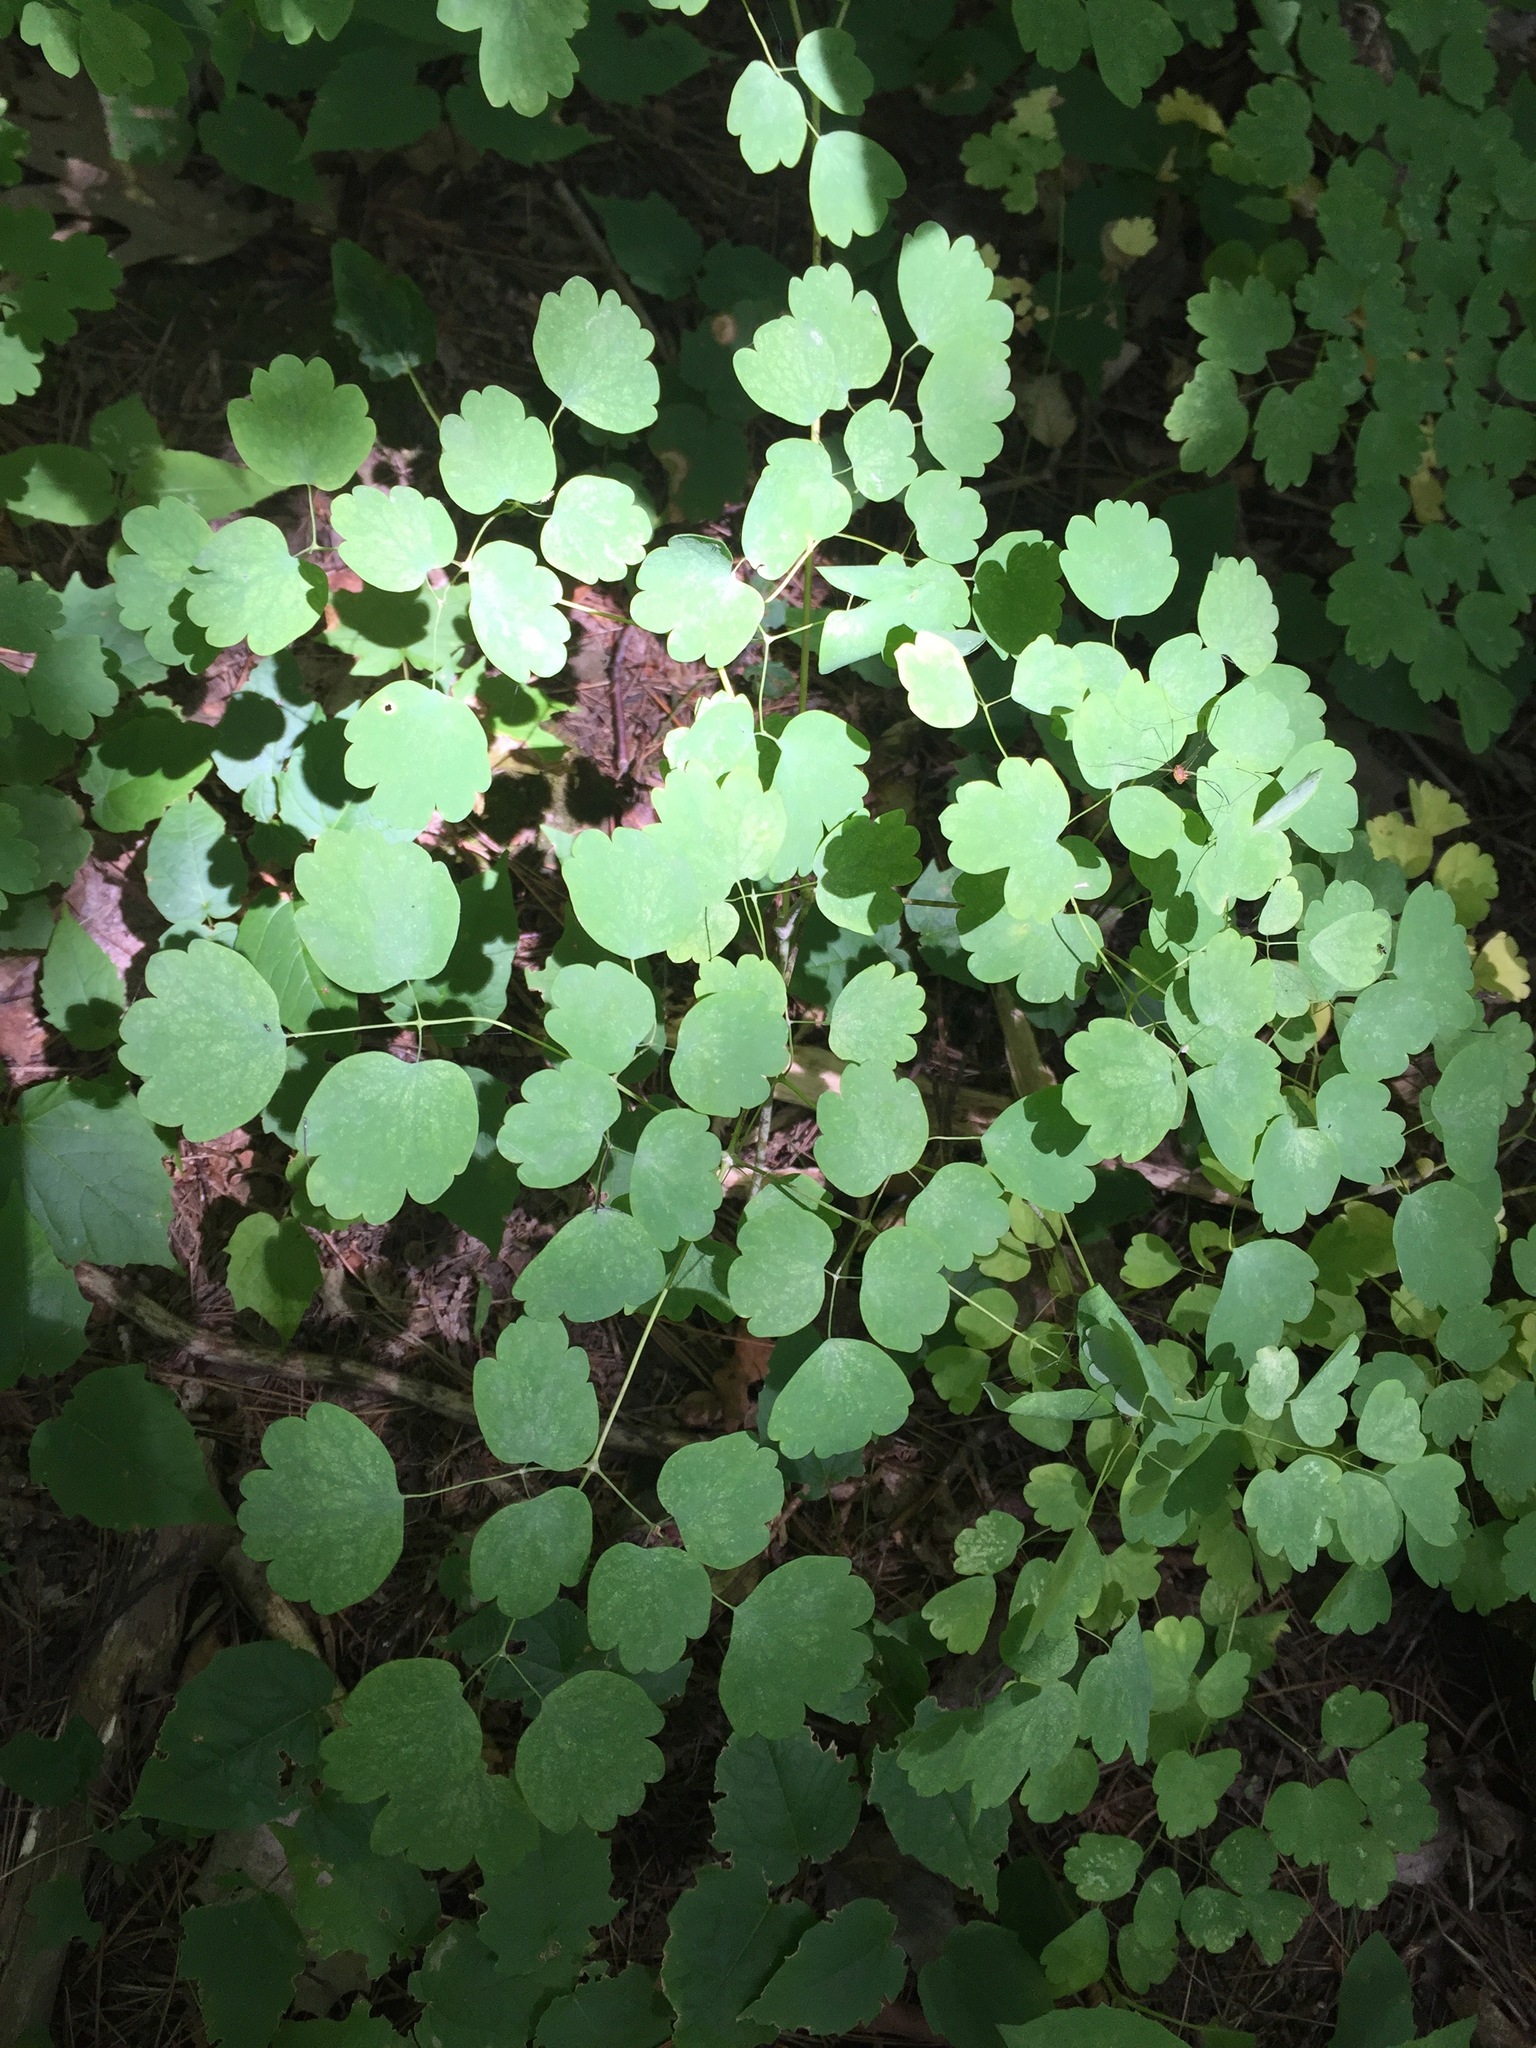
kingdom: Plantae
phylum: Tracheophyta
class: Magnoliopsida
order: Ranunculales
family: Ranunculaceae
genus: Thalictrum
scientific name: Thalictrum dioicum
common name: Early meadow-rue
